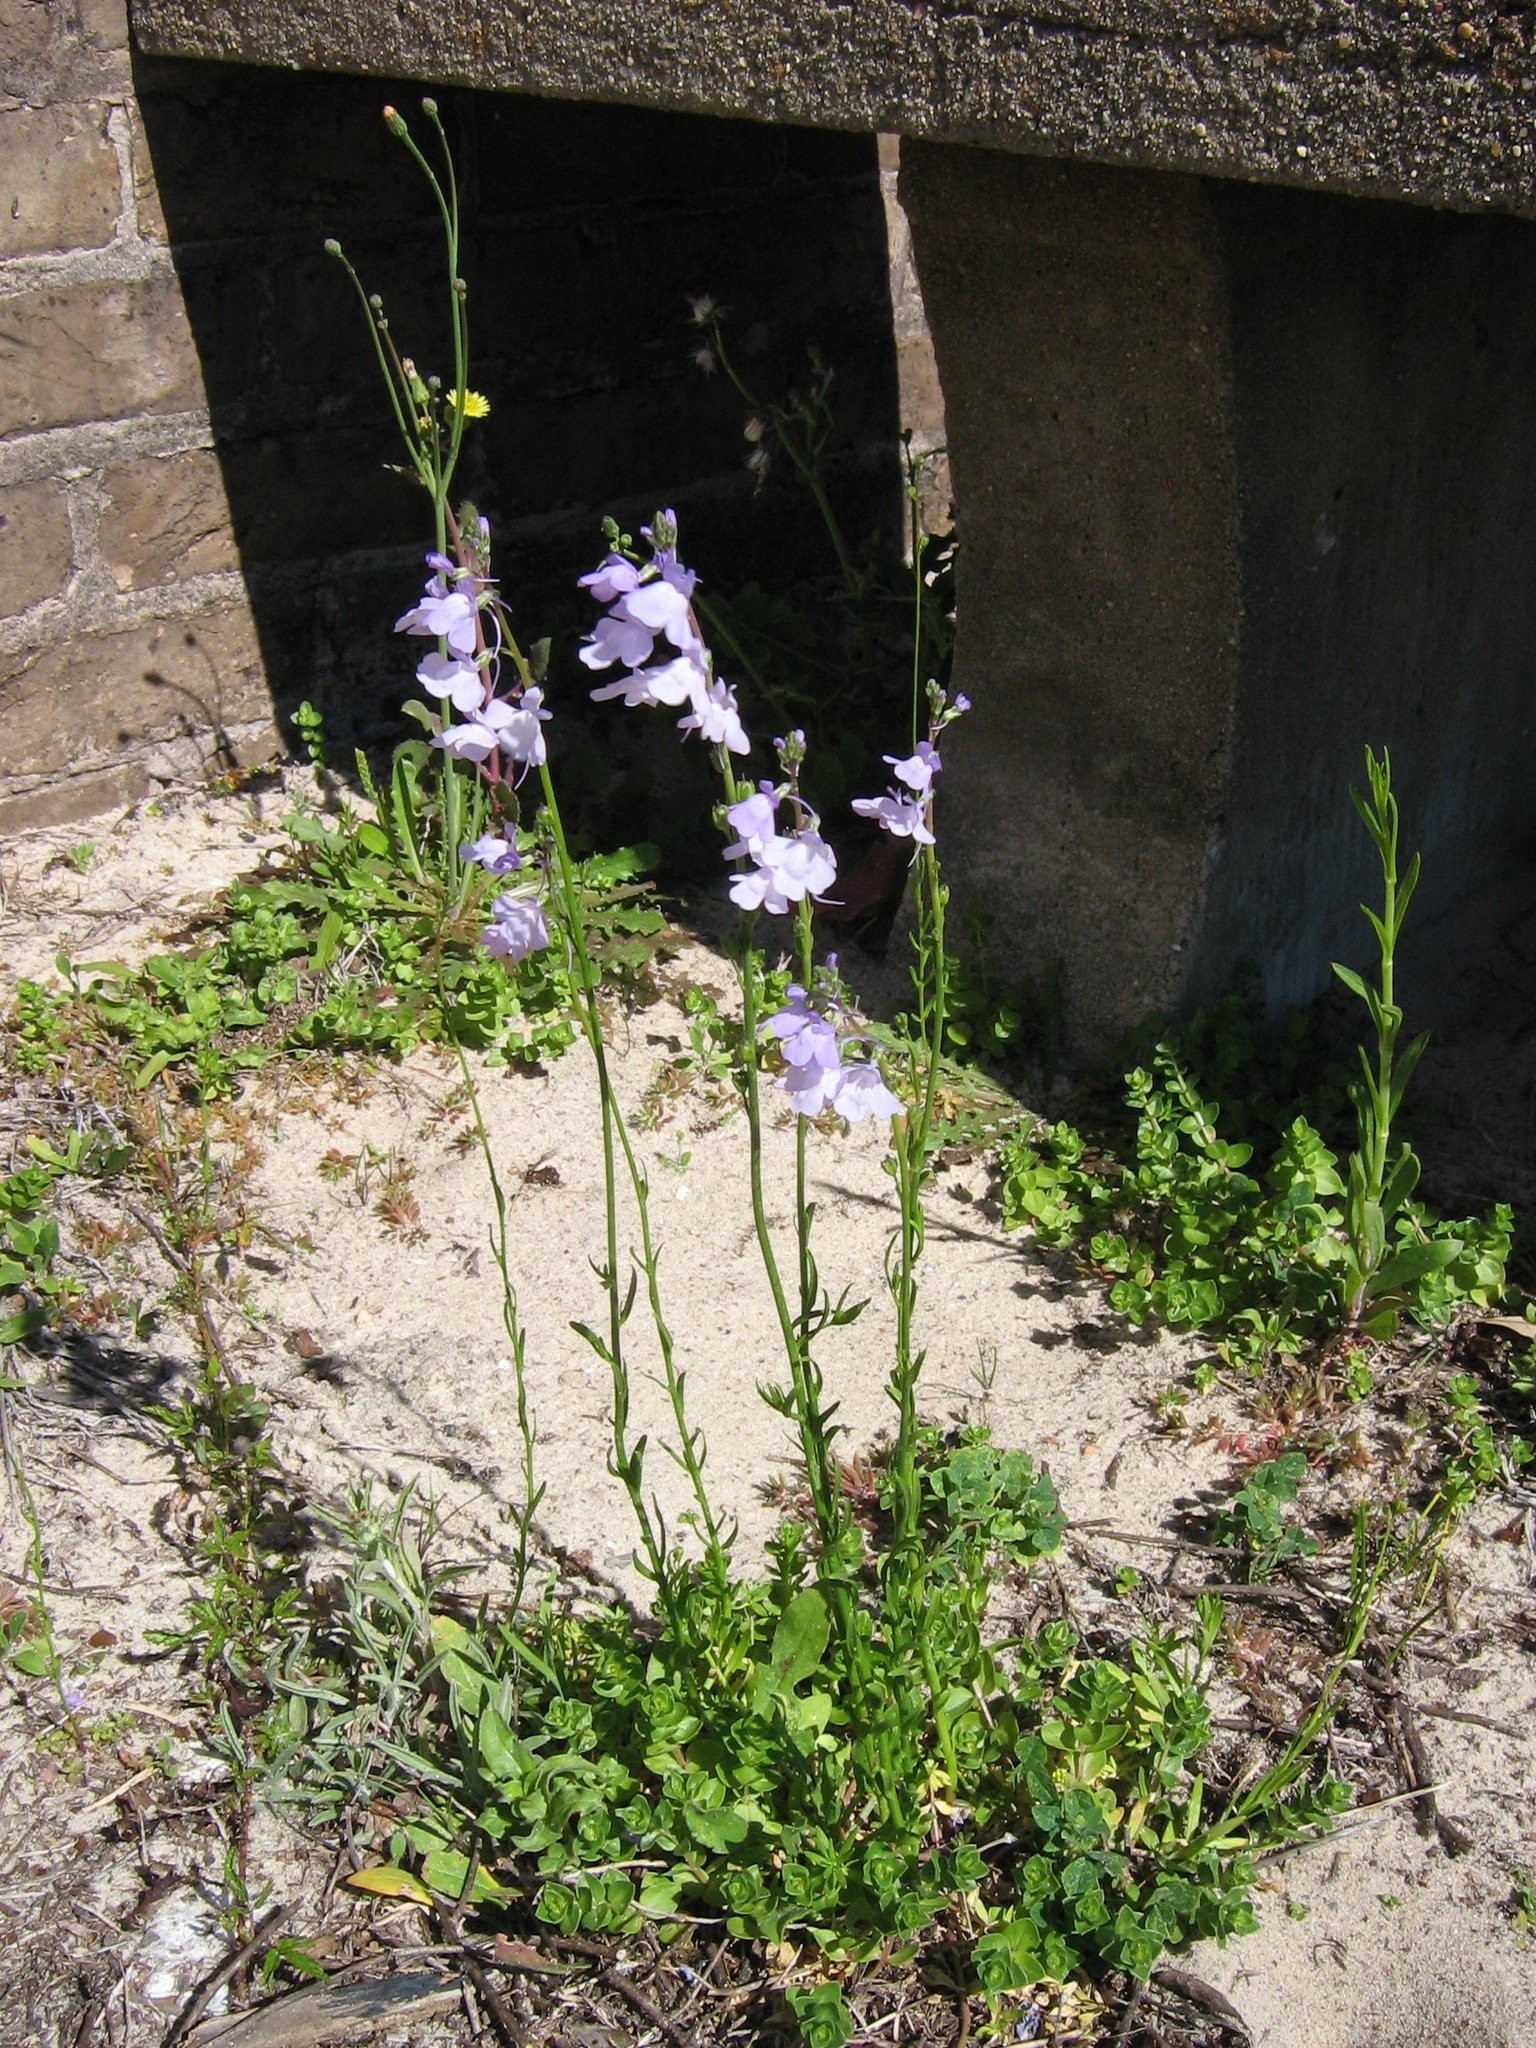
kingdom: Plantae
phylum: Tracheophyta
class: Magnoliopsida
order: Lamiales
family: Plantaginaceae
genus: Nuttallanthus
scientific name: Nuttallanthus canadensis
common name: Blue toadflax
